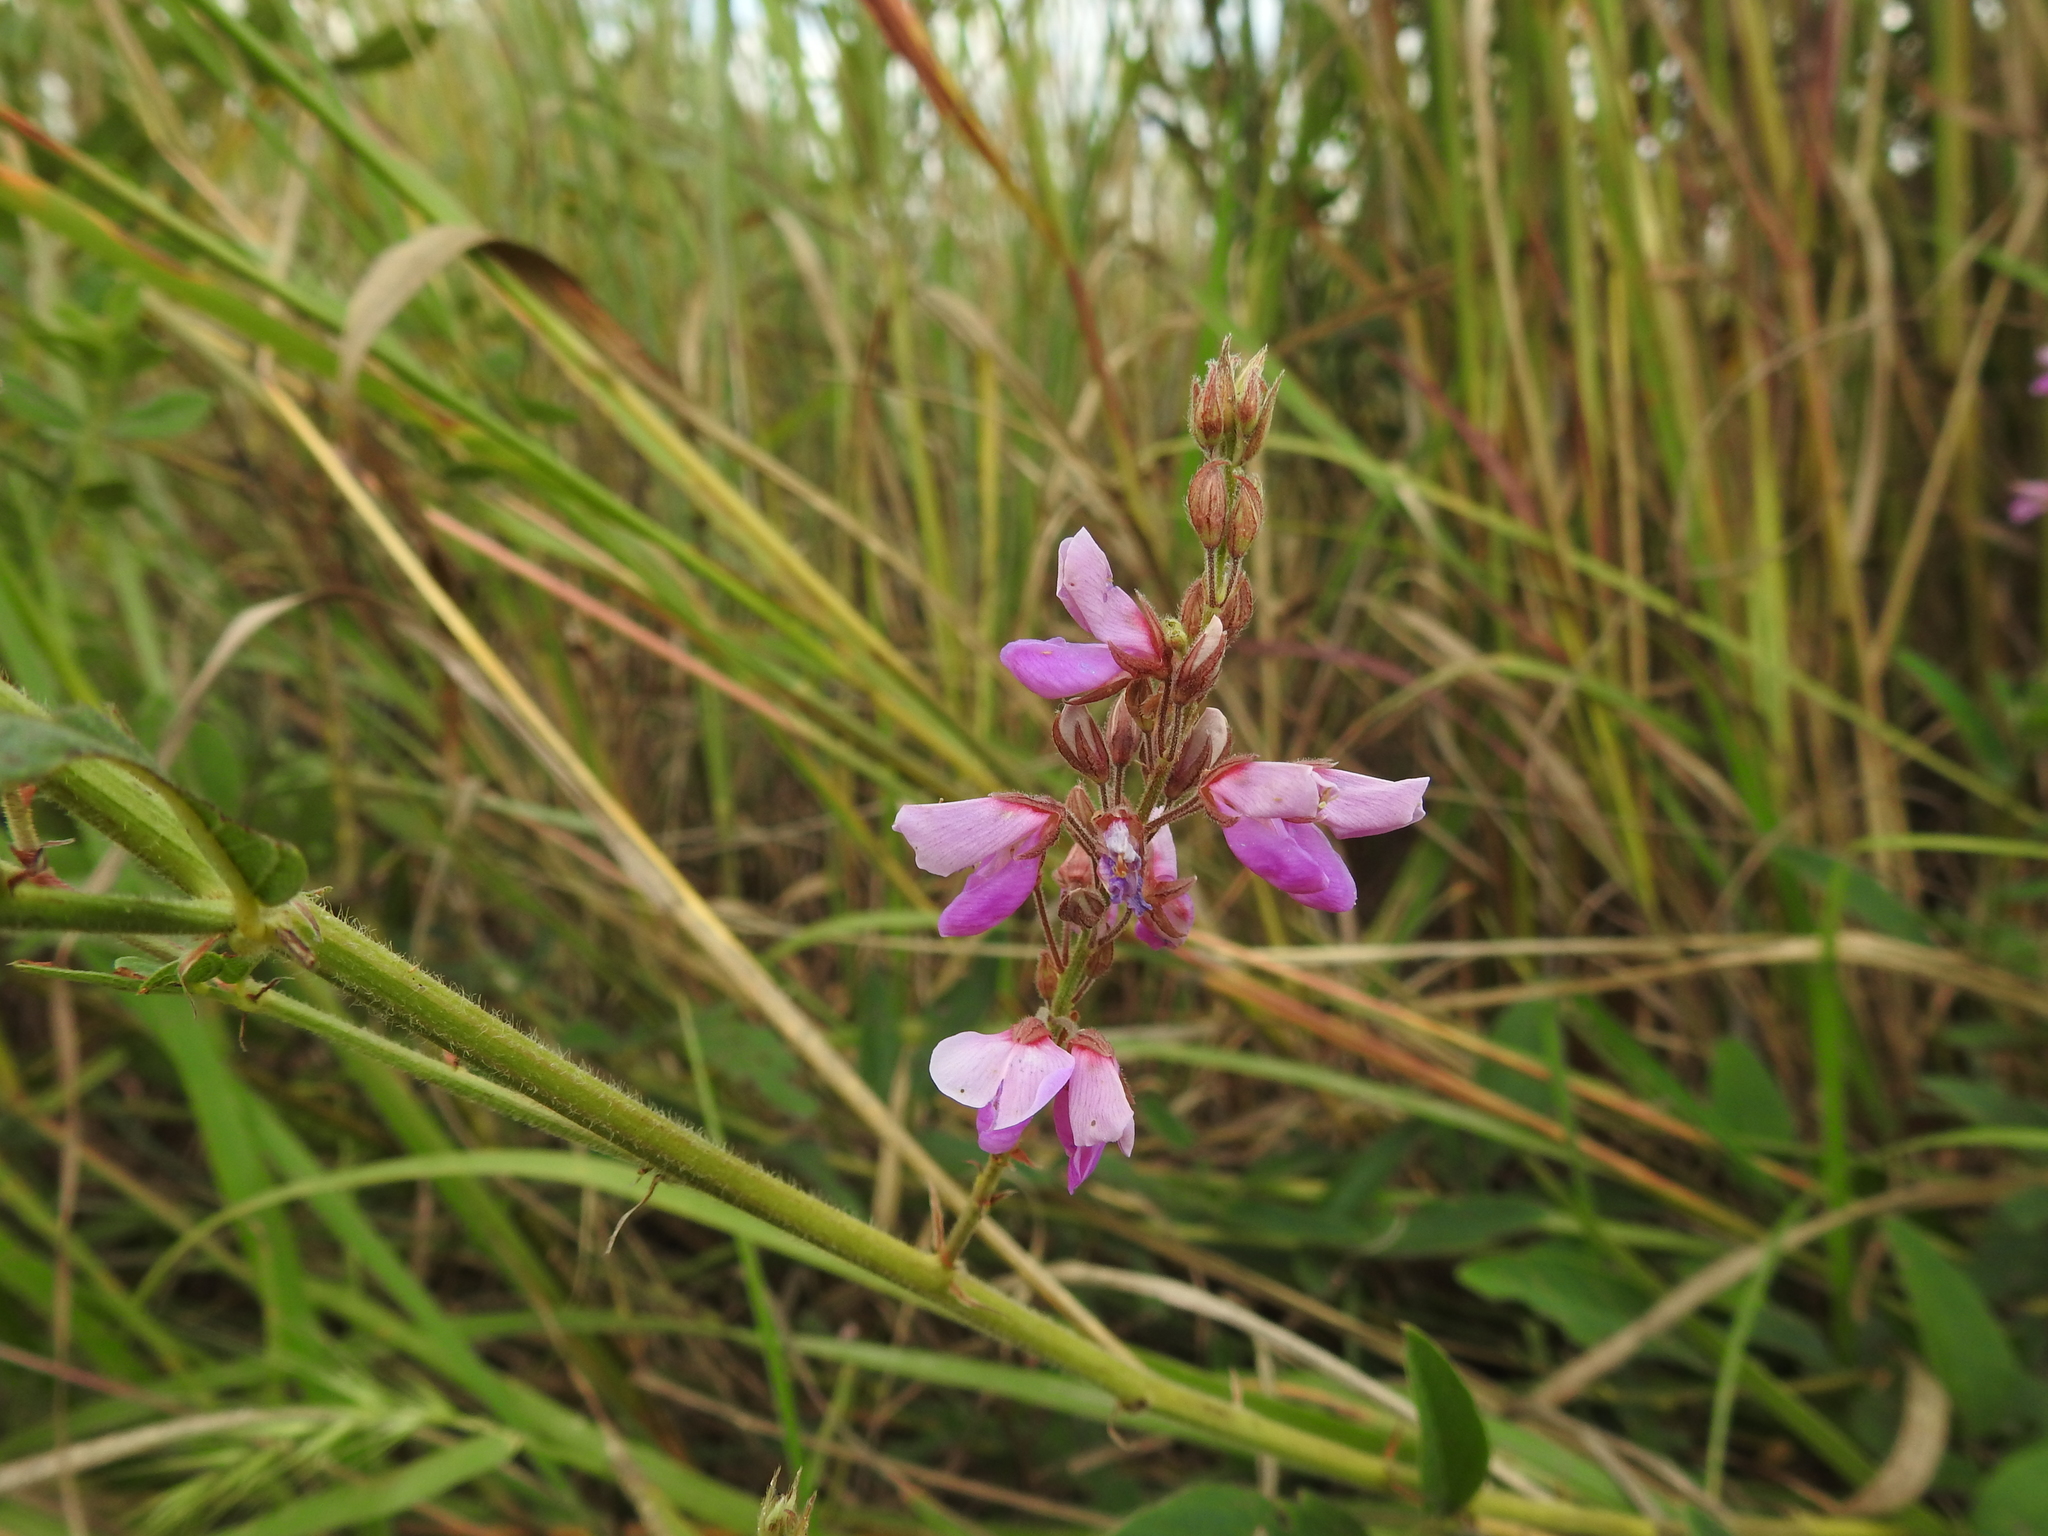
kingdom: Plantae
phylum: Tracheophyta
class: Magnoliopsida
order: Fabales
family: Fabaceae
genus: Desmodium
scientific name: Desmodium canadense
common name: Canada tick-trefoil
